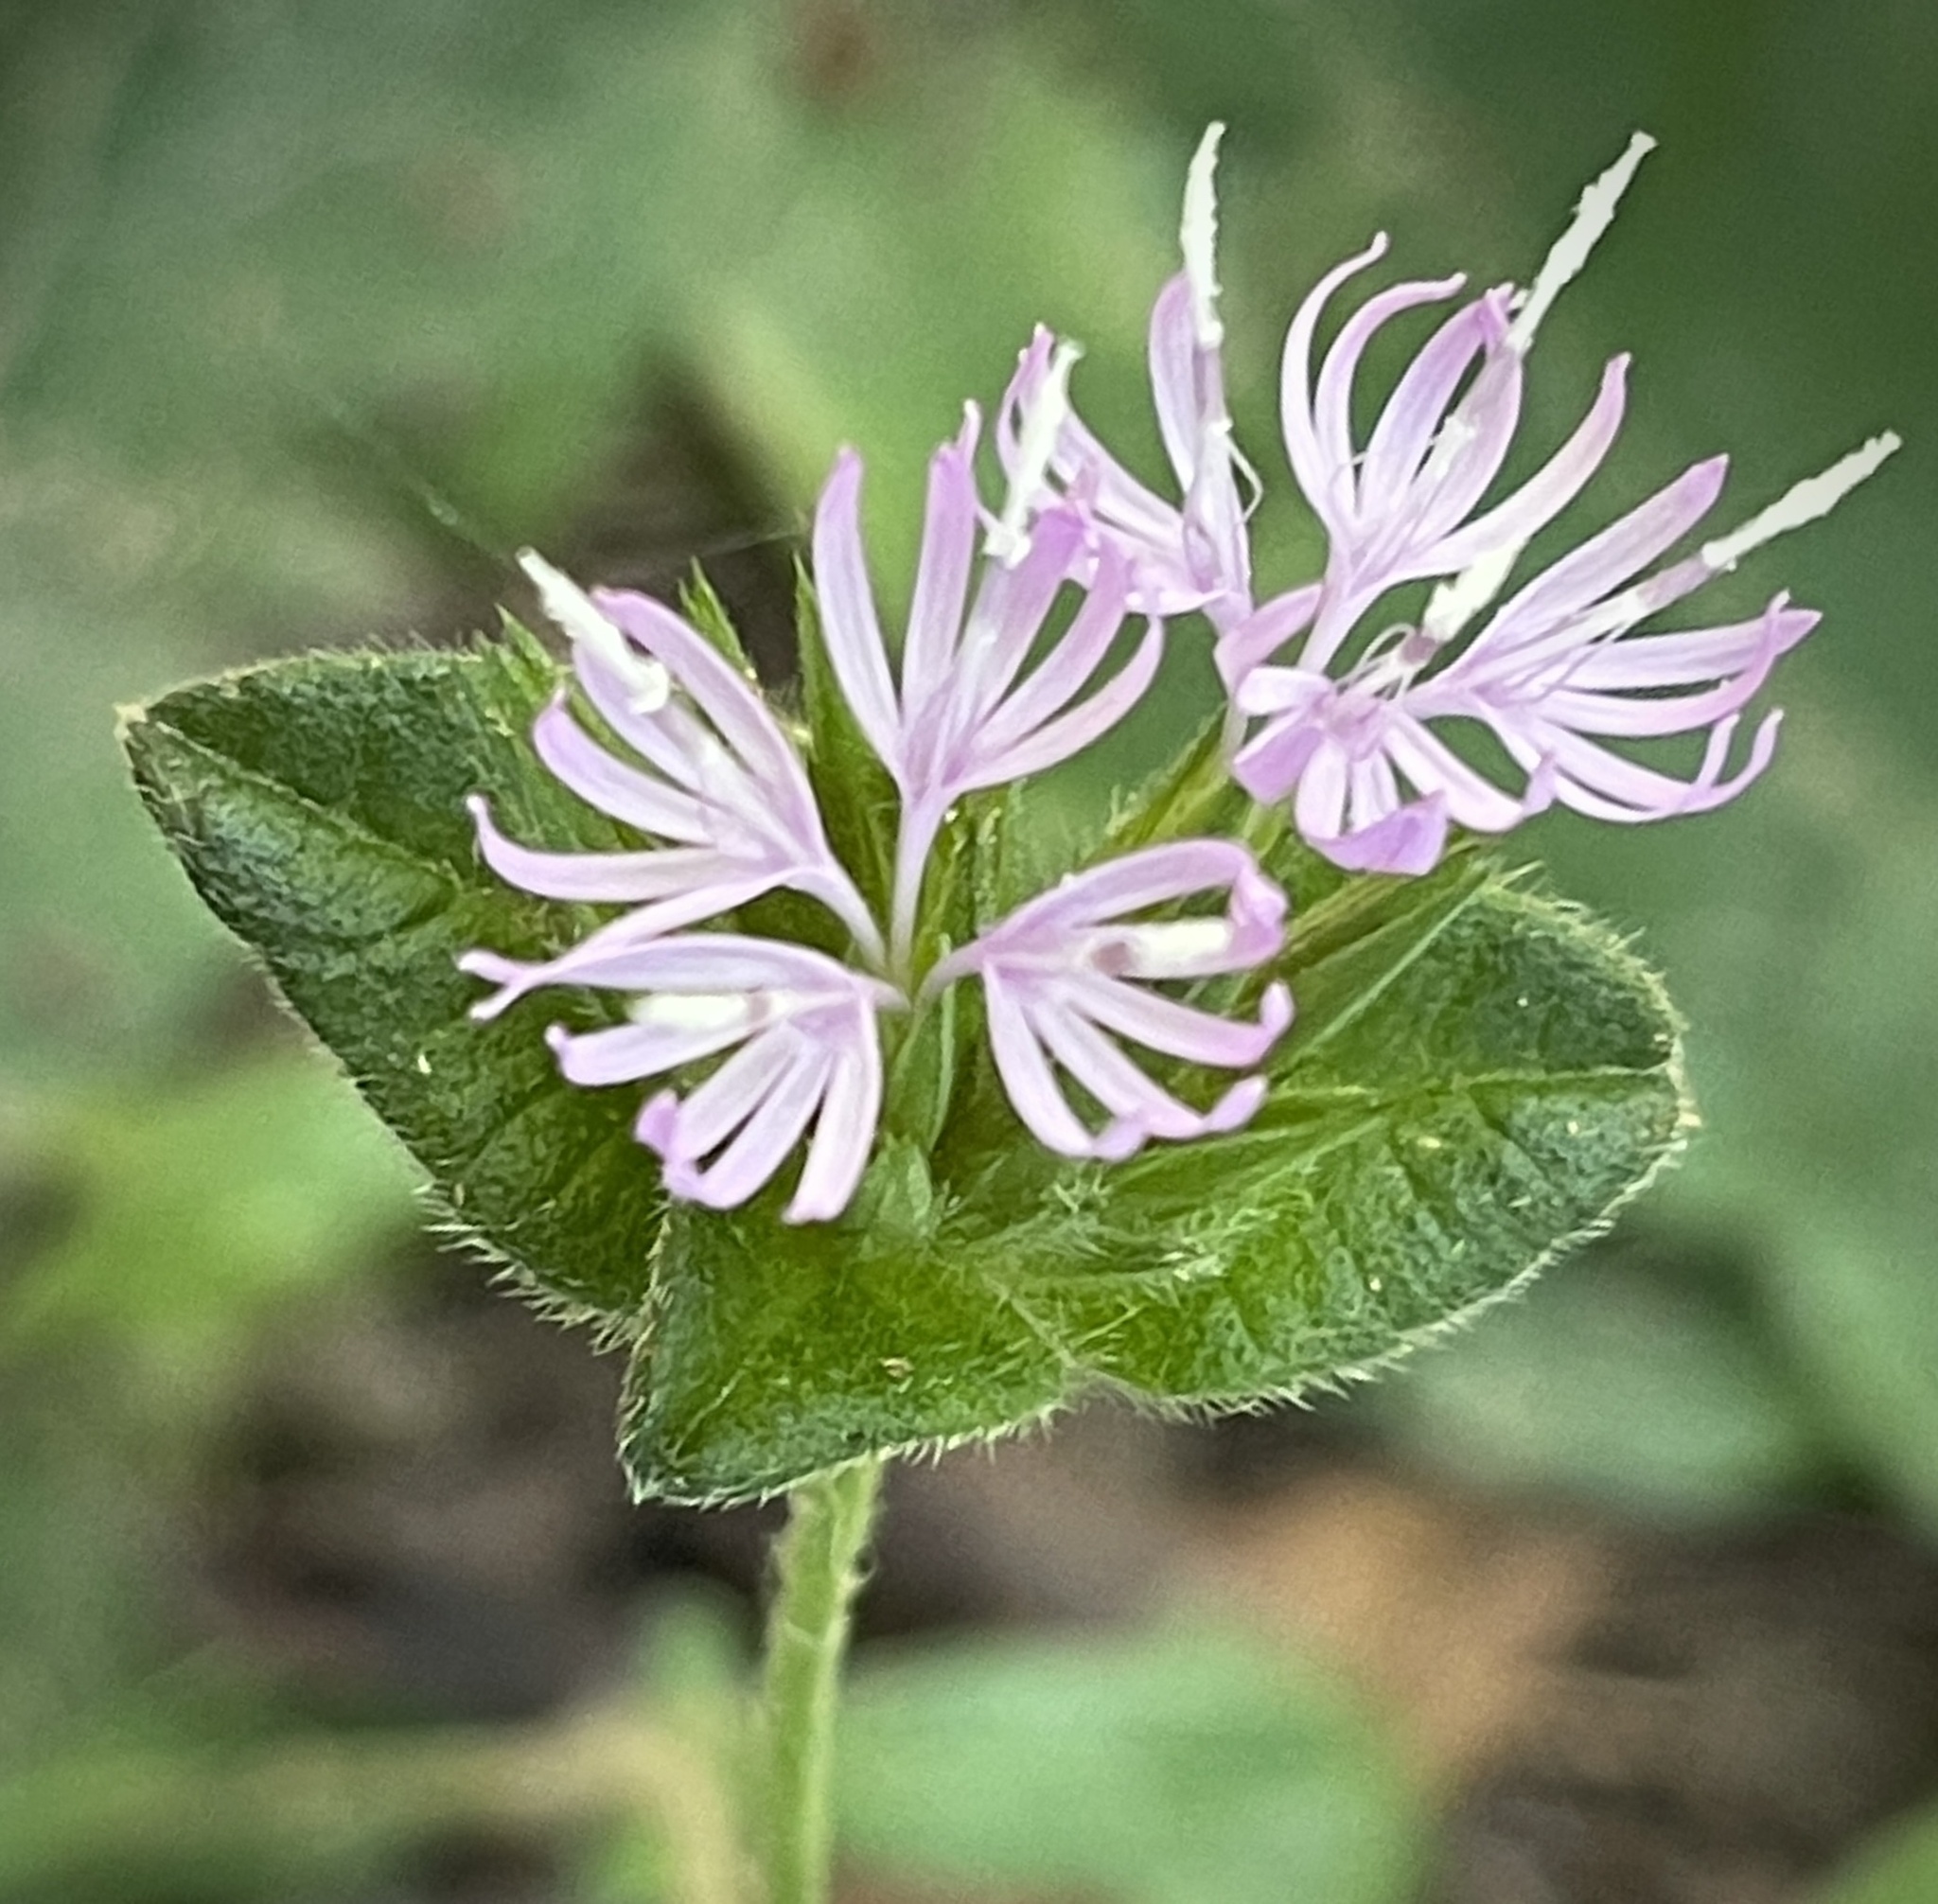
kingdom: Plantae
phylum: Tracheophyta
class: Magnoliopsida
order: Asterales
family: Asteraceae
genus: Elephantopus
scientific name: Elephantopus tomentosus
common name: Tobacco-weed
